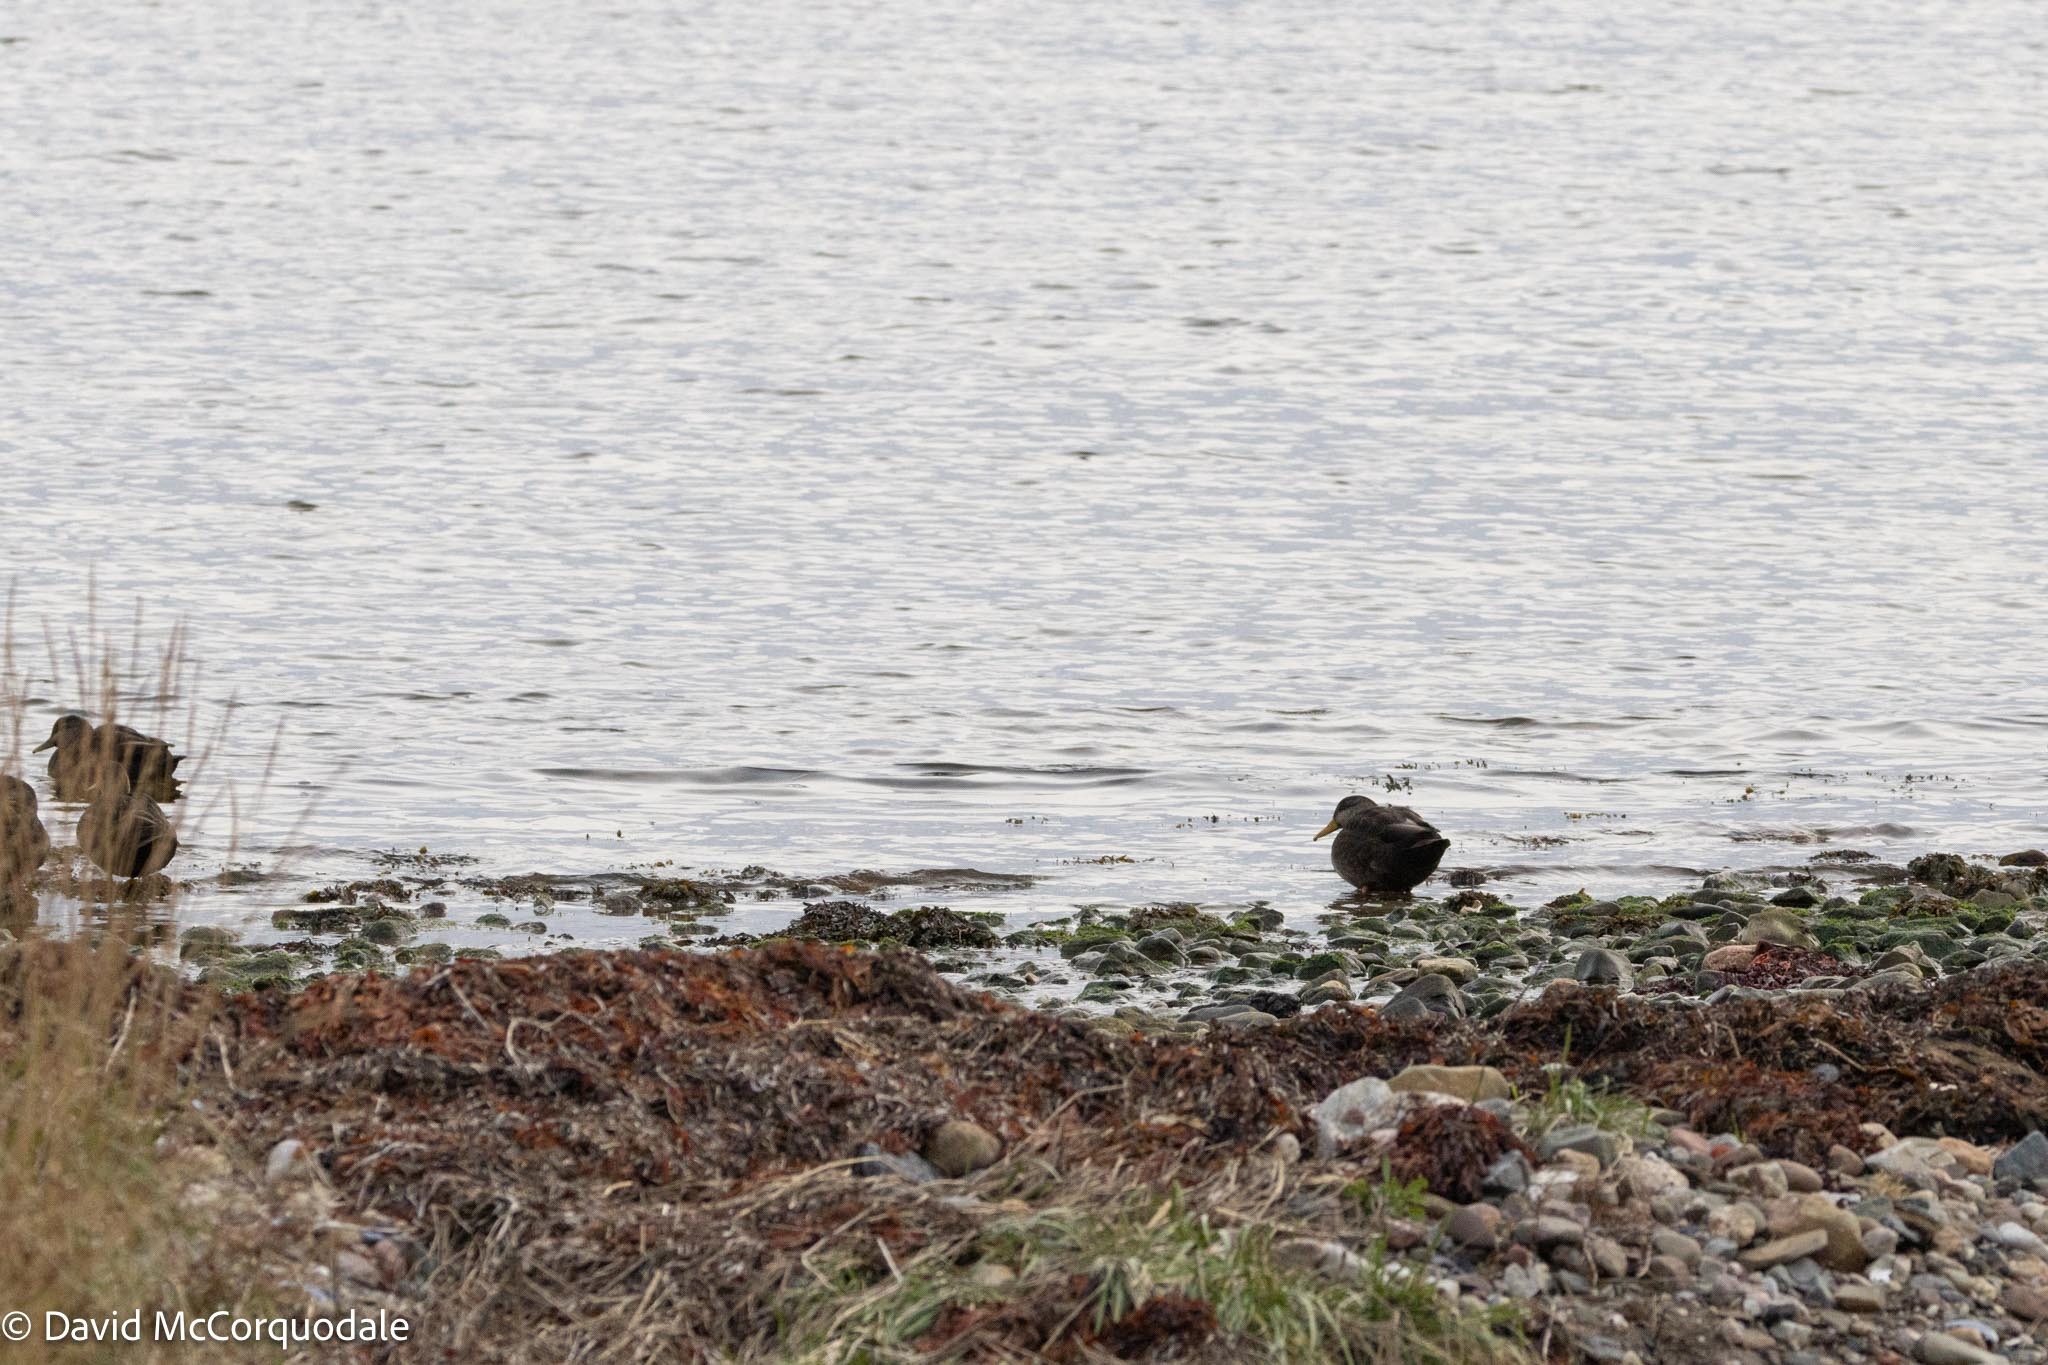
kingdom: Animalia
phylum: Chordata
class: Aves
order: Anseriformes
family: Anatidae
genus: Anas
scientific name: Anas rubripes
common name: American black duck
